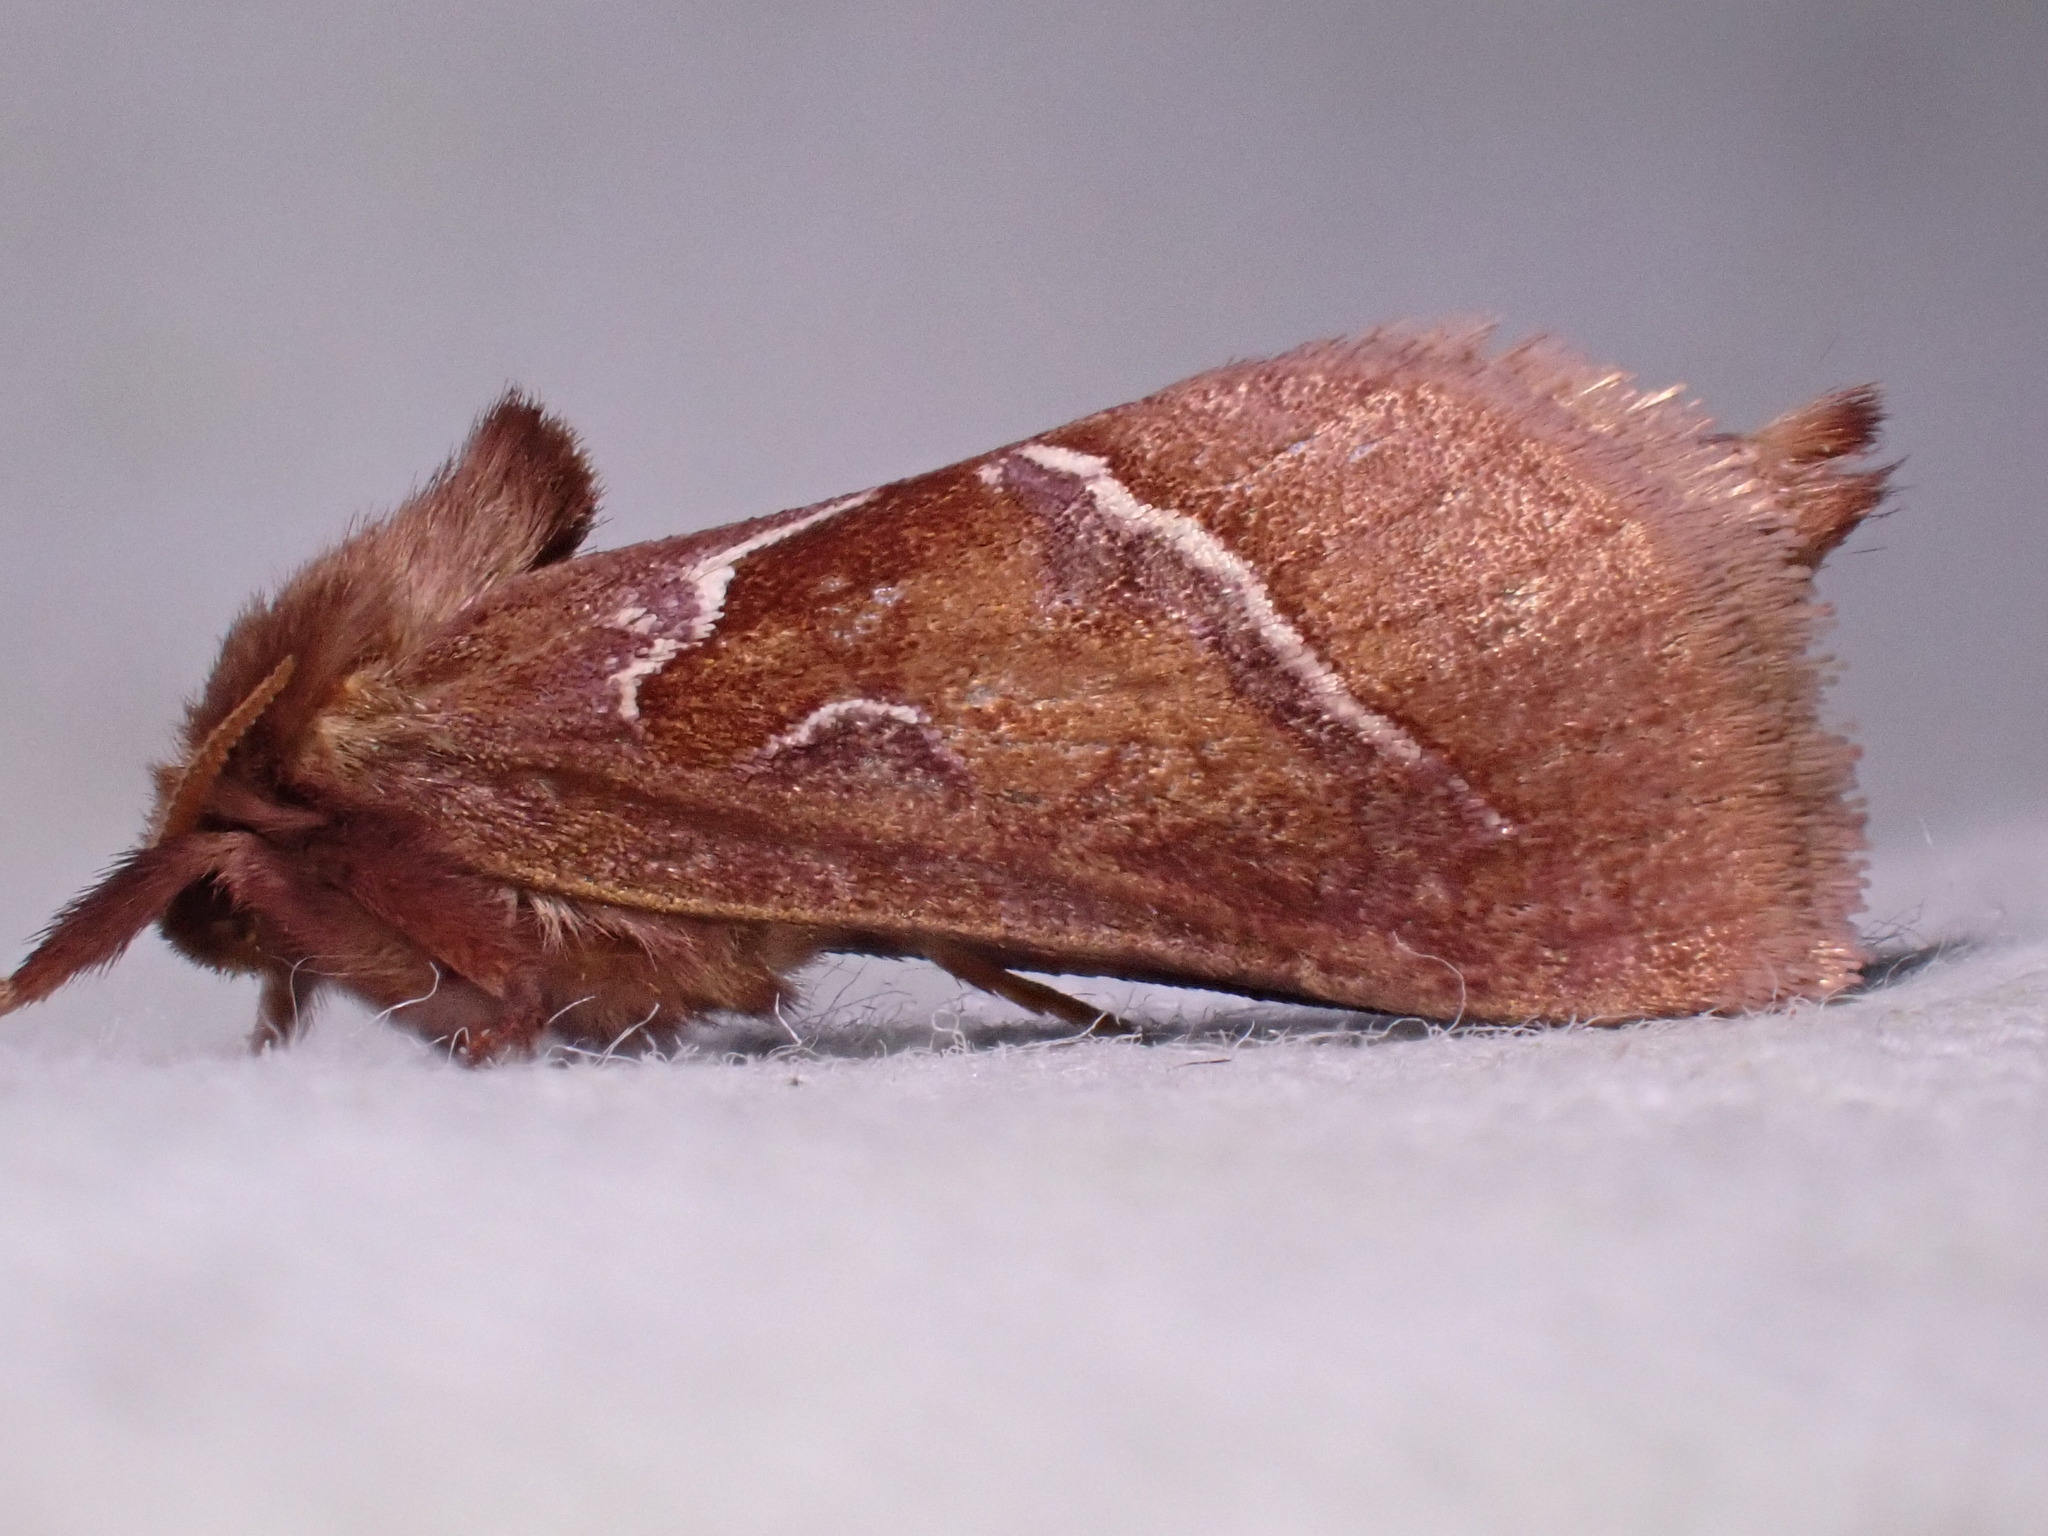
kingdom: Animalia
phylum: Arthropoda
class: Insecta
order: Lepidoptera
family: Hepialidae
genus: Triodia
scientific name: Triodia sylvina
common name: Orange swift
